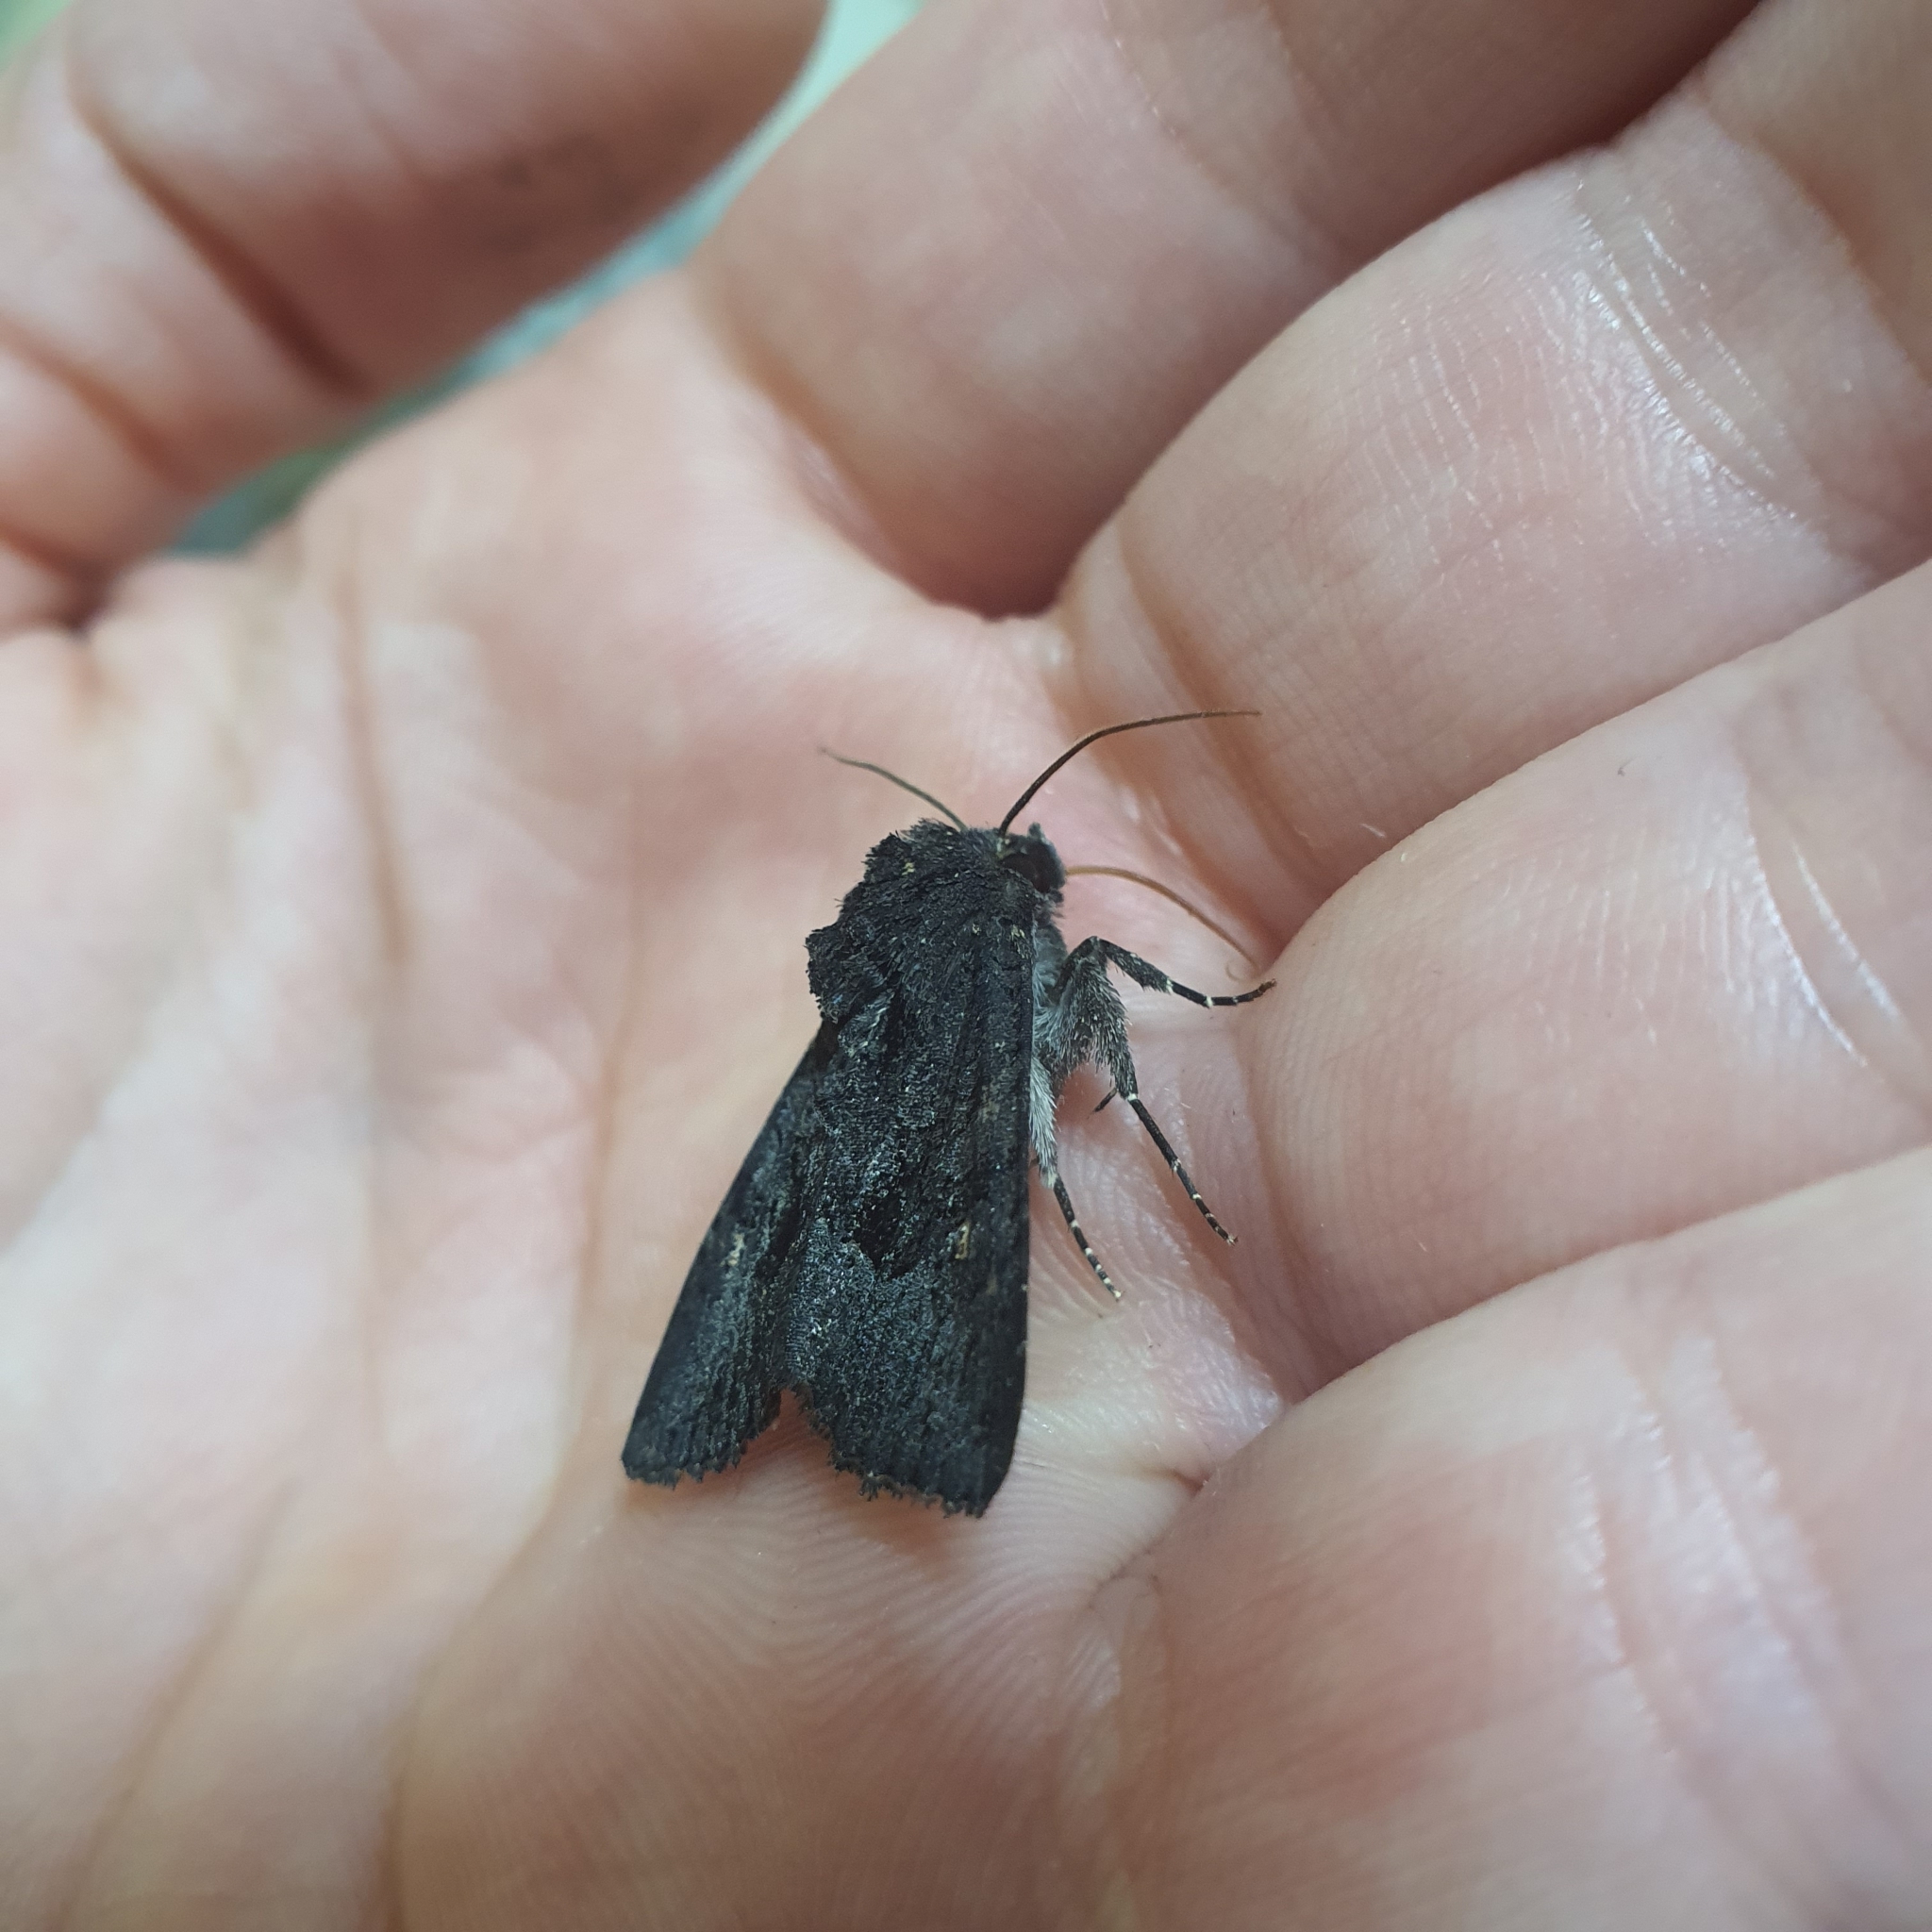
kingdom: Animalia
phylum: Arthropoda
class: Insecta
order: Lepidoptera
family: Noctuidae
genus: Neumichtis
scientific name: Neumichtis nigerrima
